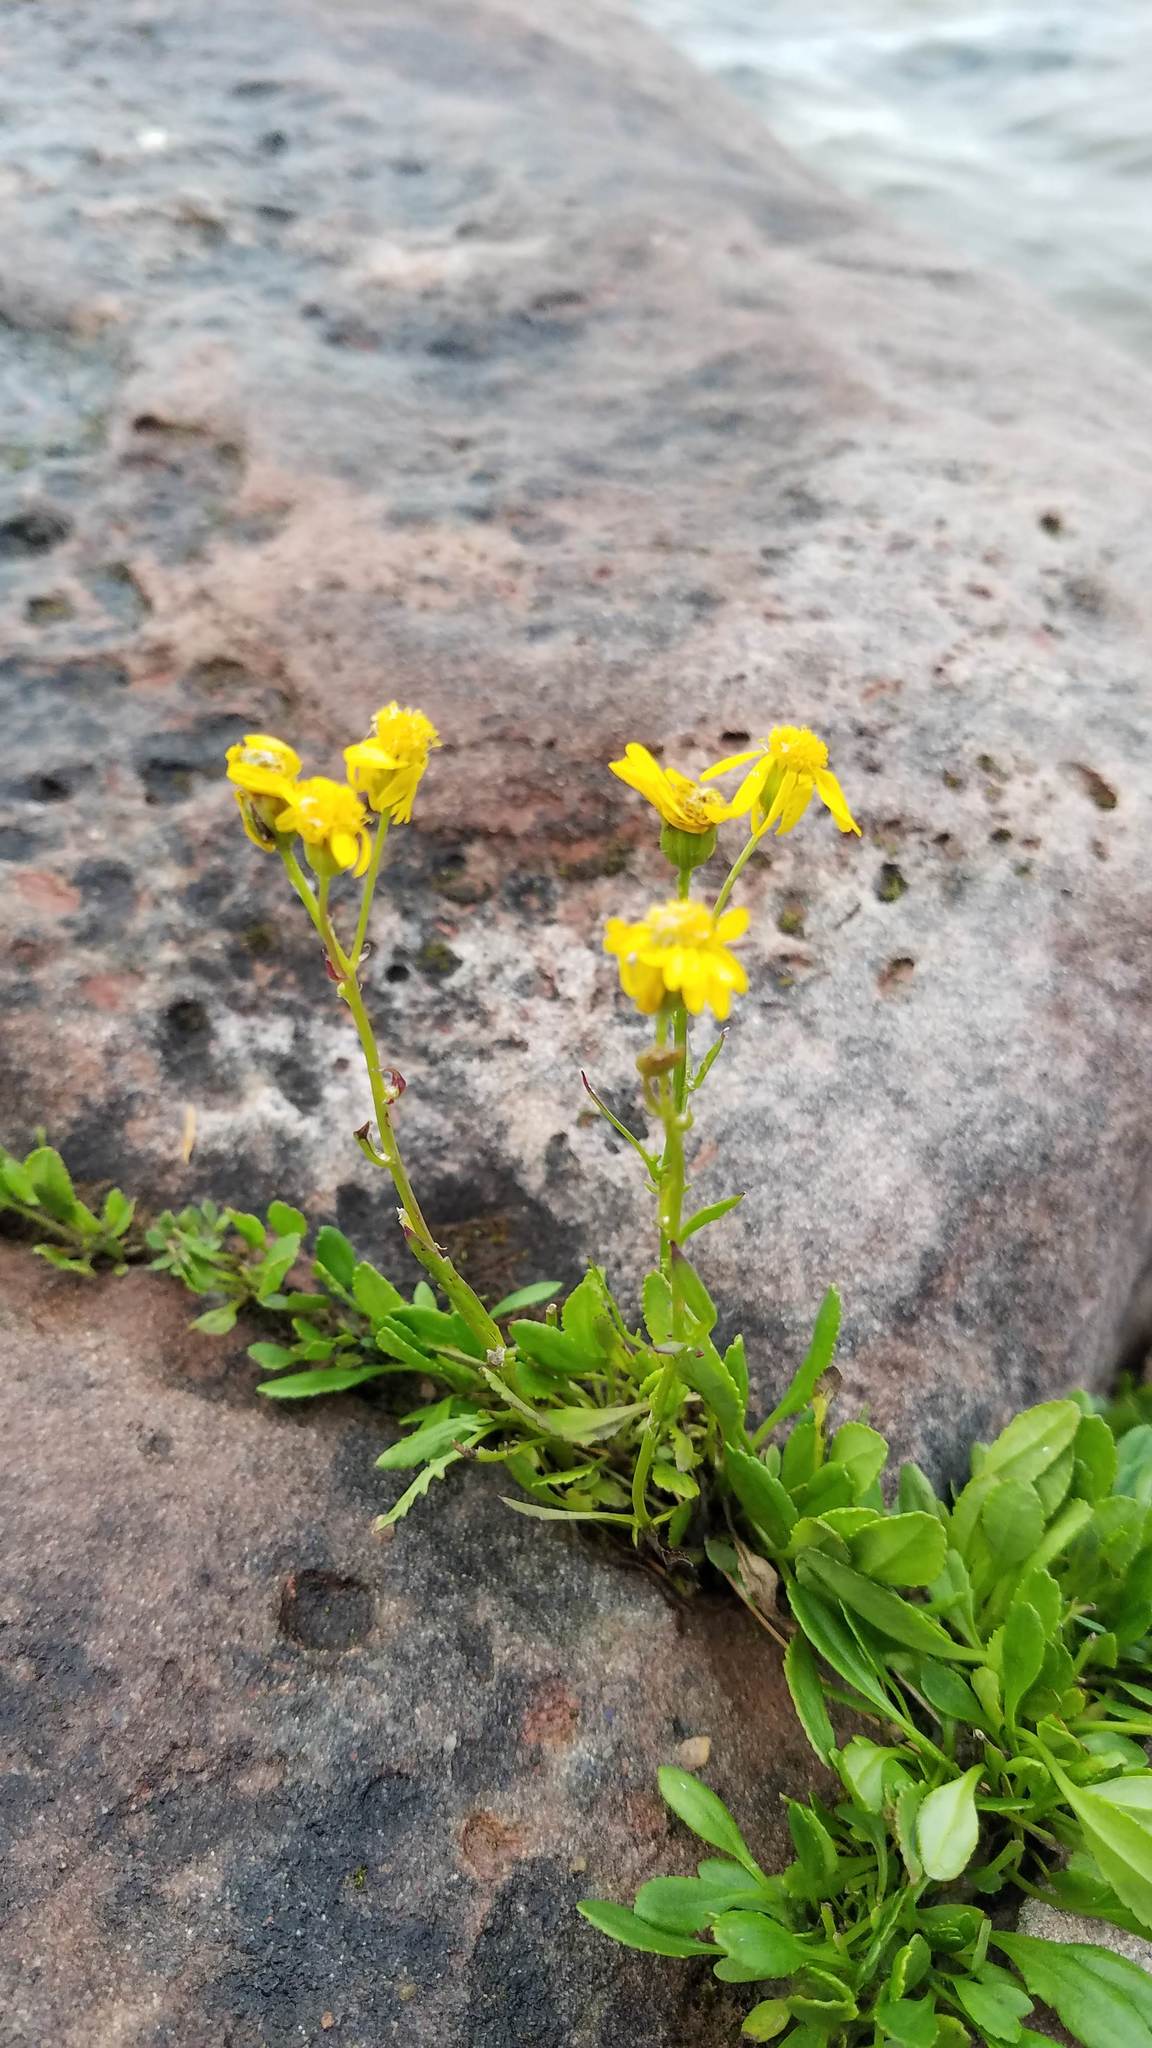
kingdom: Plantae
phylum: Tracheophyta
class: Magnoliopsida
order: Asterales
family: Asteraceae
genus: Packera
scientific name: Packera paupercula
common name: Balsam groundsel
